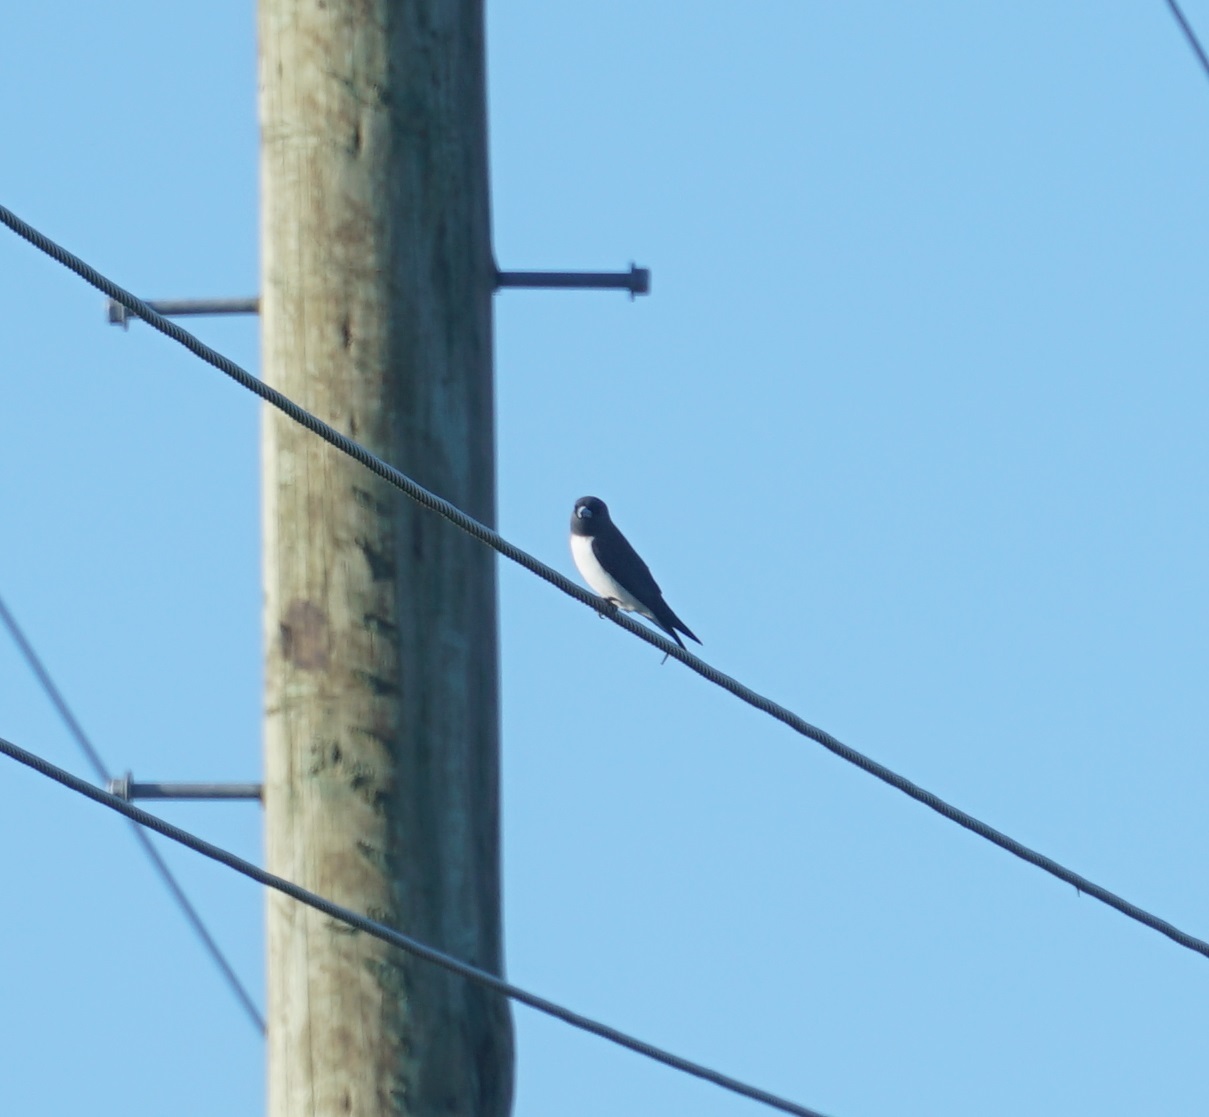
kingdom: Animalia
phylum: Chordata
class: Aves
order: Passeriformes
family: Artamidae
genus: Artamus
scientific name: Artamus leucoryn
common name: White-breasted woodswallow
